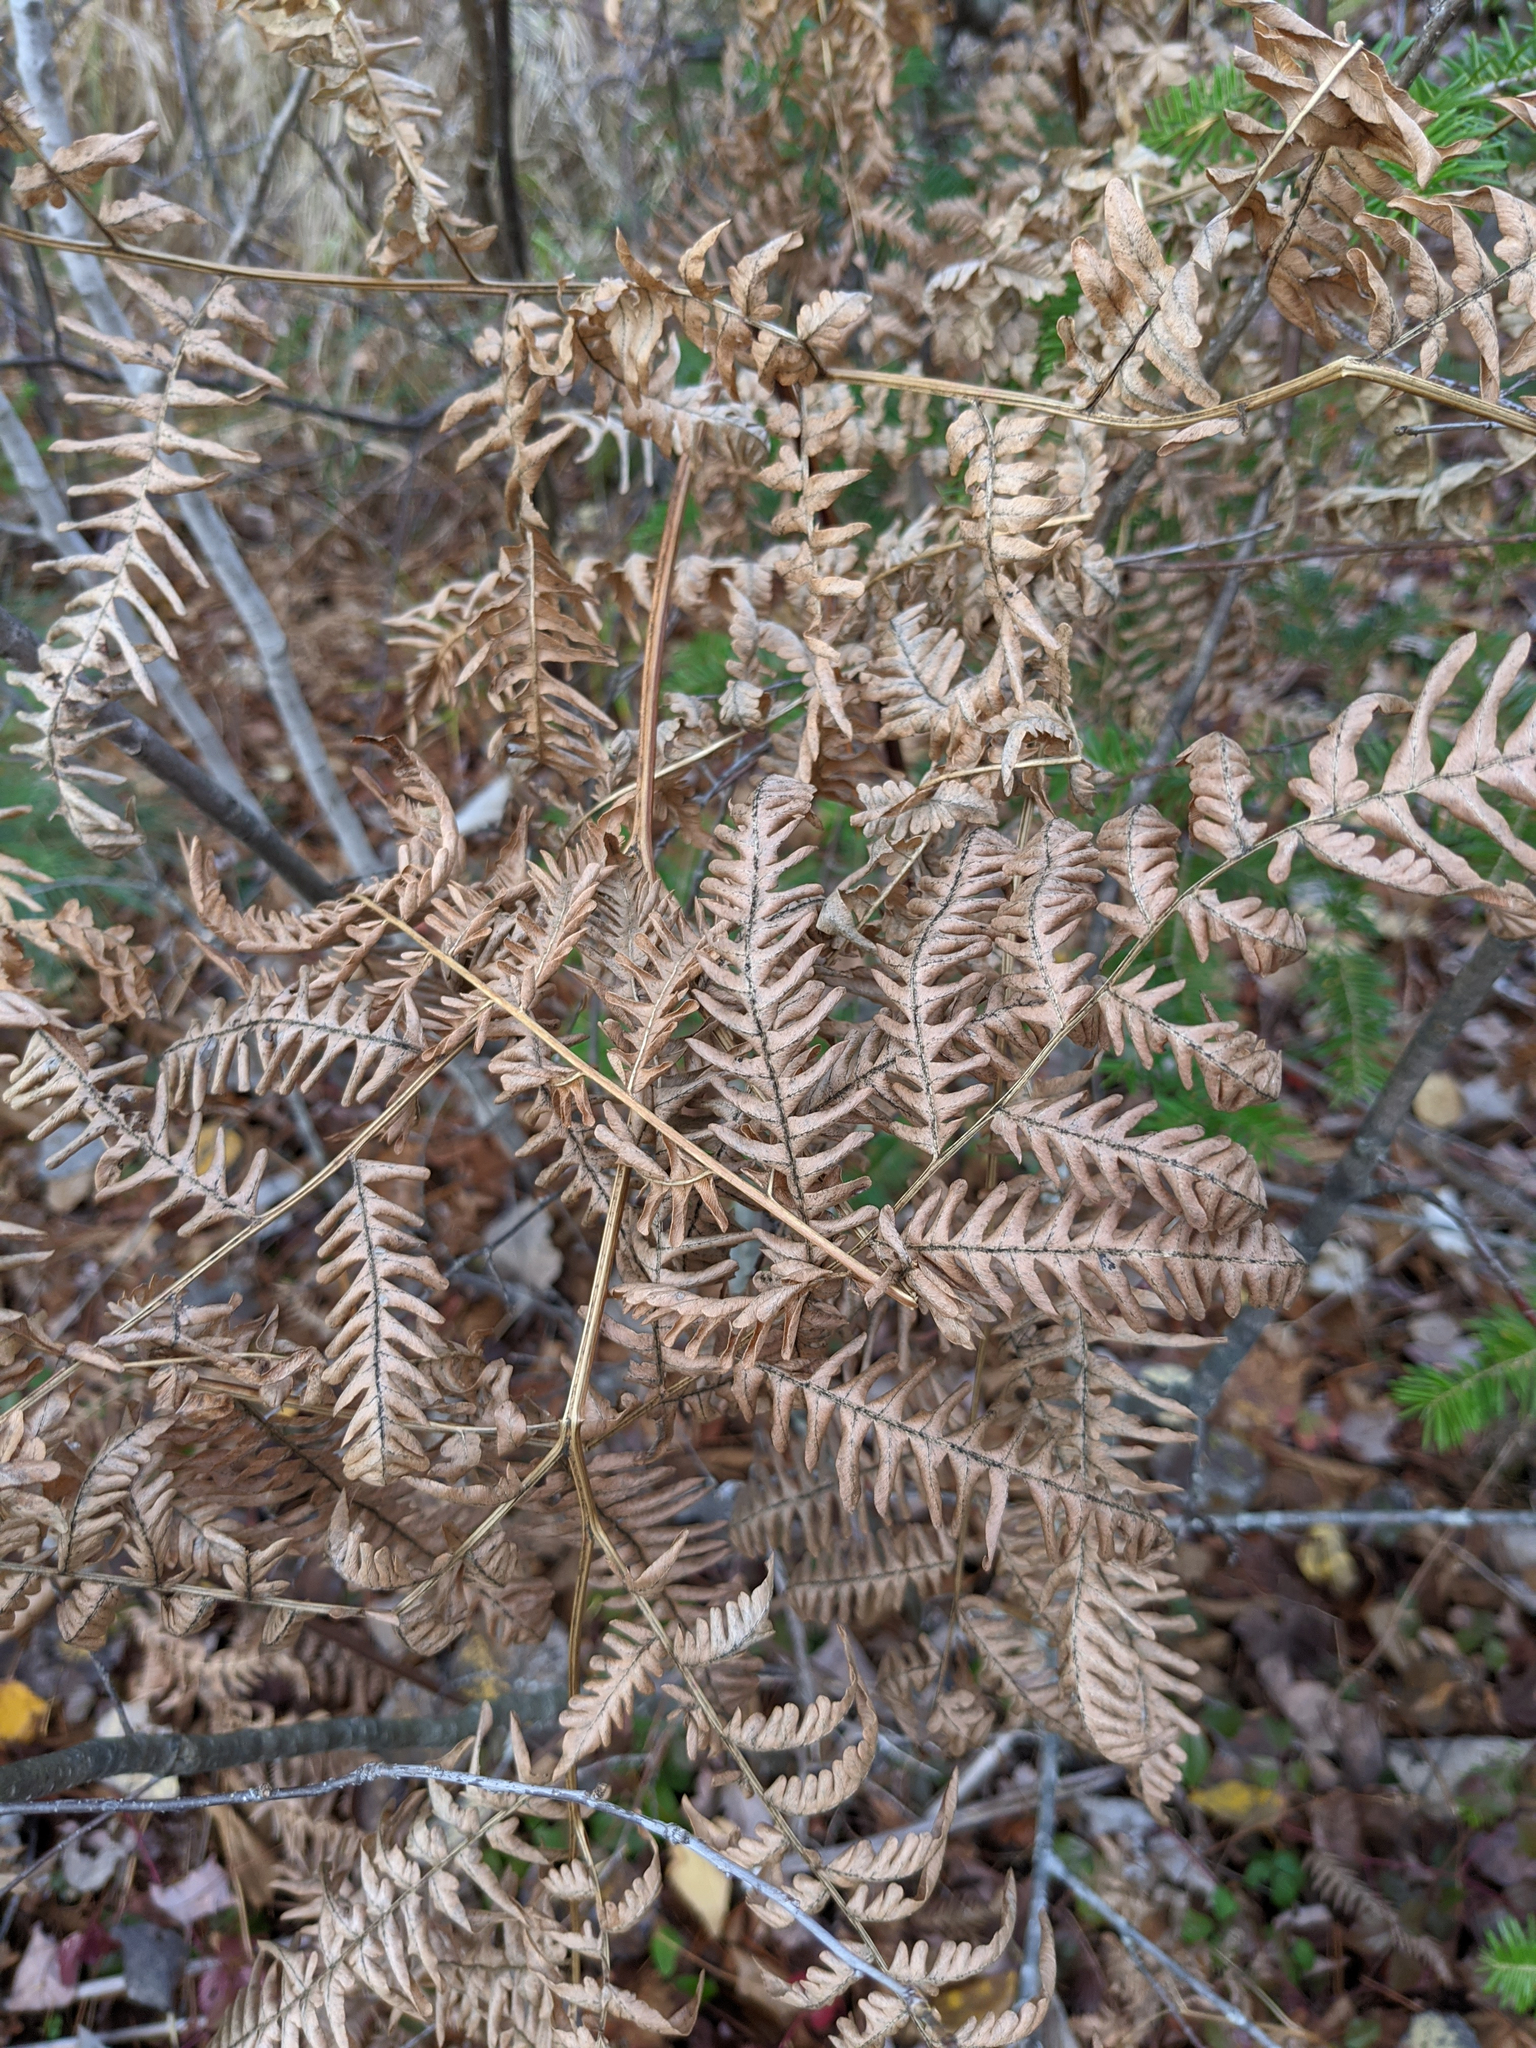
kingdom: Plantae
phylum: Tracheophyta
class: Polypodiopsida
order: Polypodiales
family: Dennstaedtiaceae
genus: Pteridium
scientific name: Pteridium aquilinum
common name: Bracken
